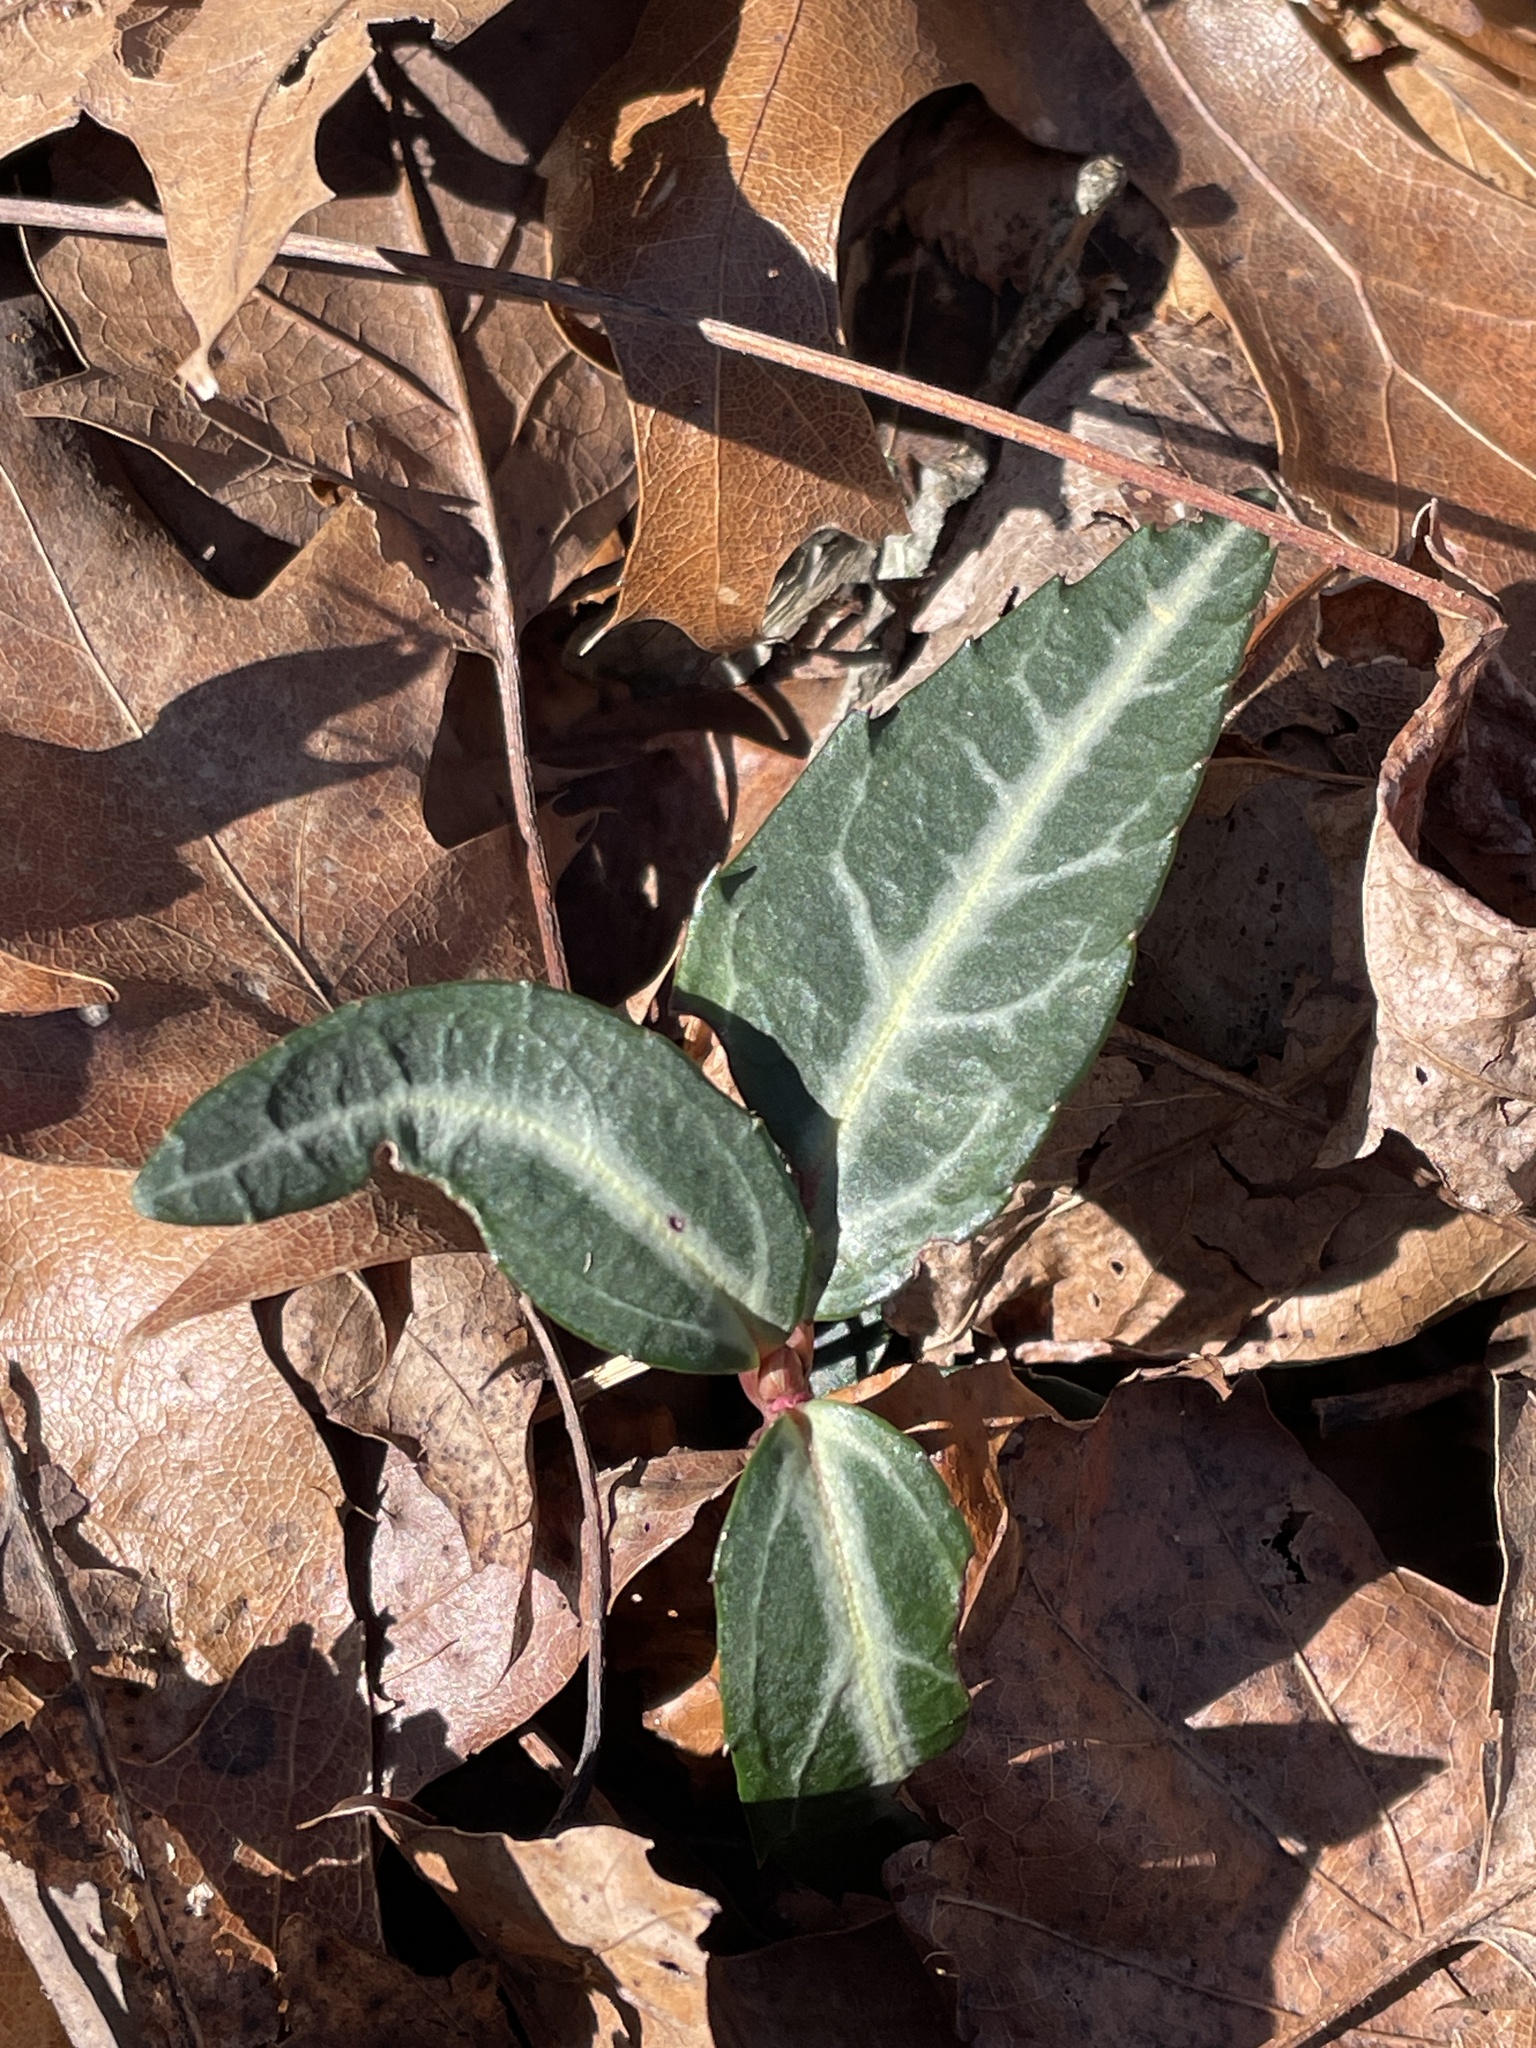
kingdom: Plantae
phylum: Tracheophyta
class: Magnoliopsida
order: Ericales
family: Ericaceae
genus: Chimaphila
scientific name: Chimaphila maculata
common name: Spotted pipsissewa
